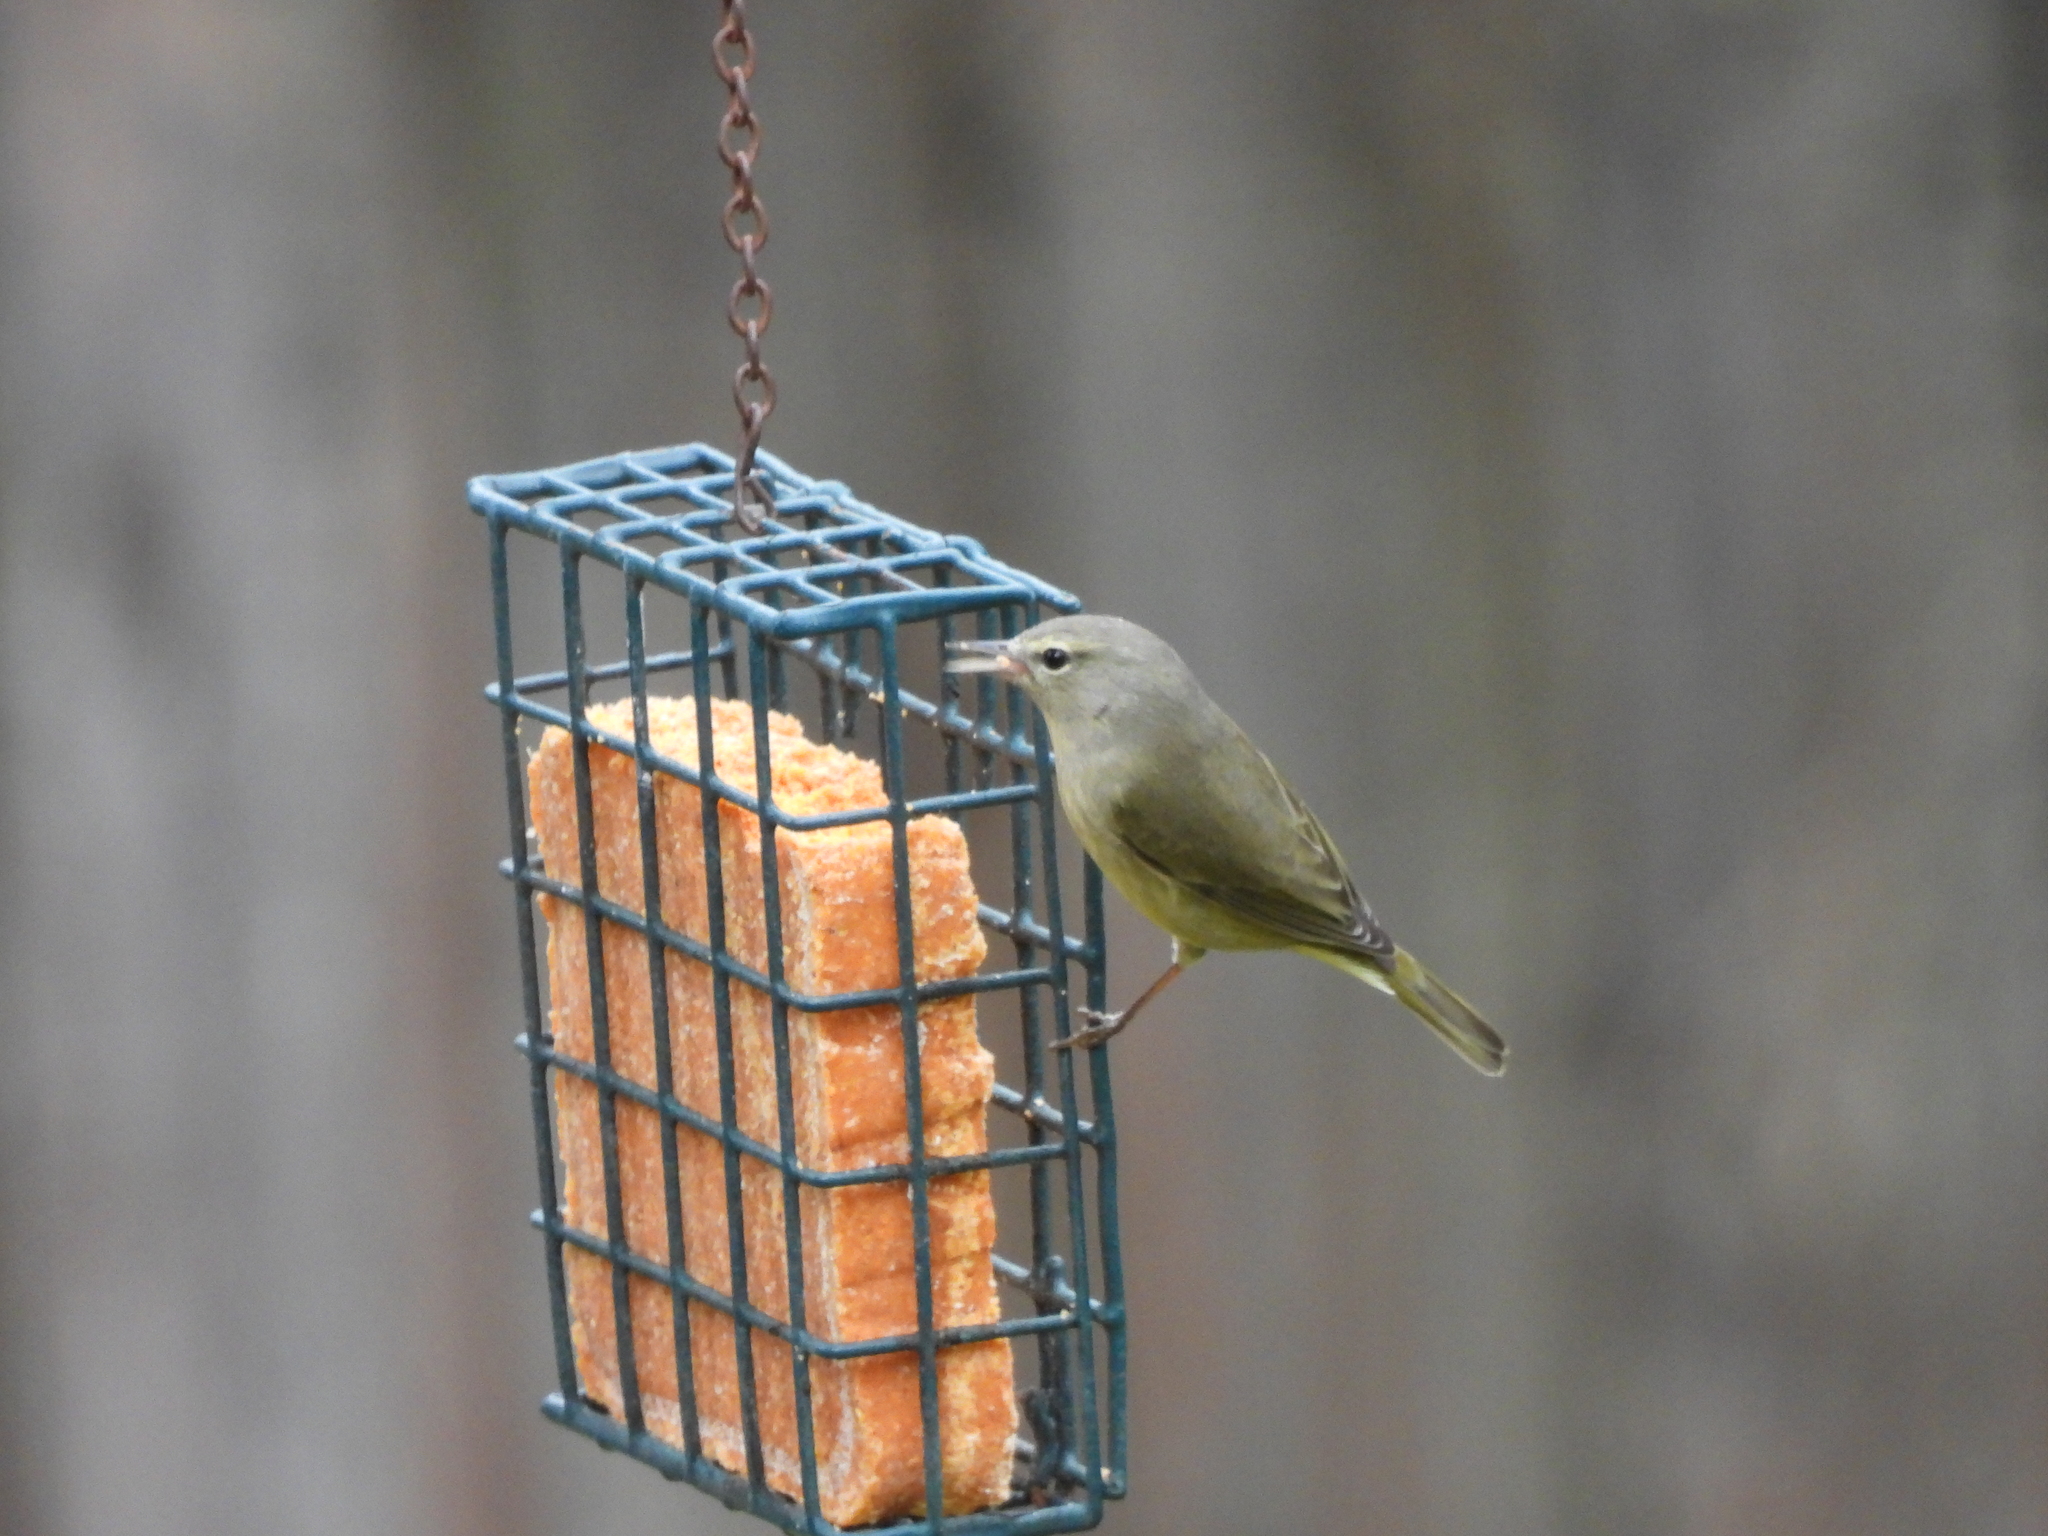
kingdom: Animalia
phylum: Chordata
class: Aves
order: Passeriformes
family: Parulidae
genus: Leiothlypis
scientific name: Leiothlypis celata
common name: Orange-crowned warbler
